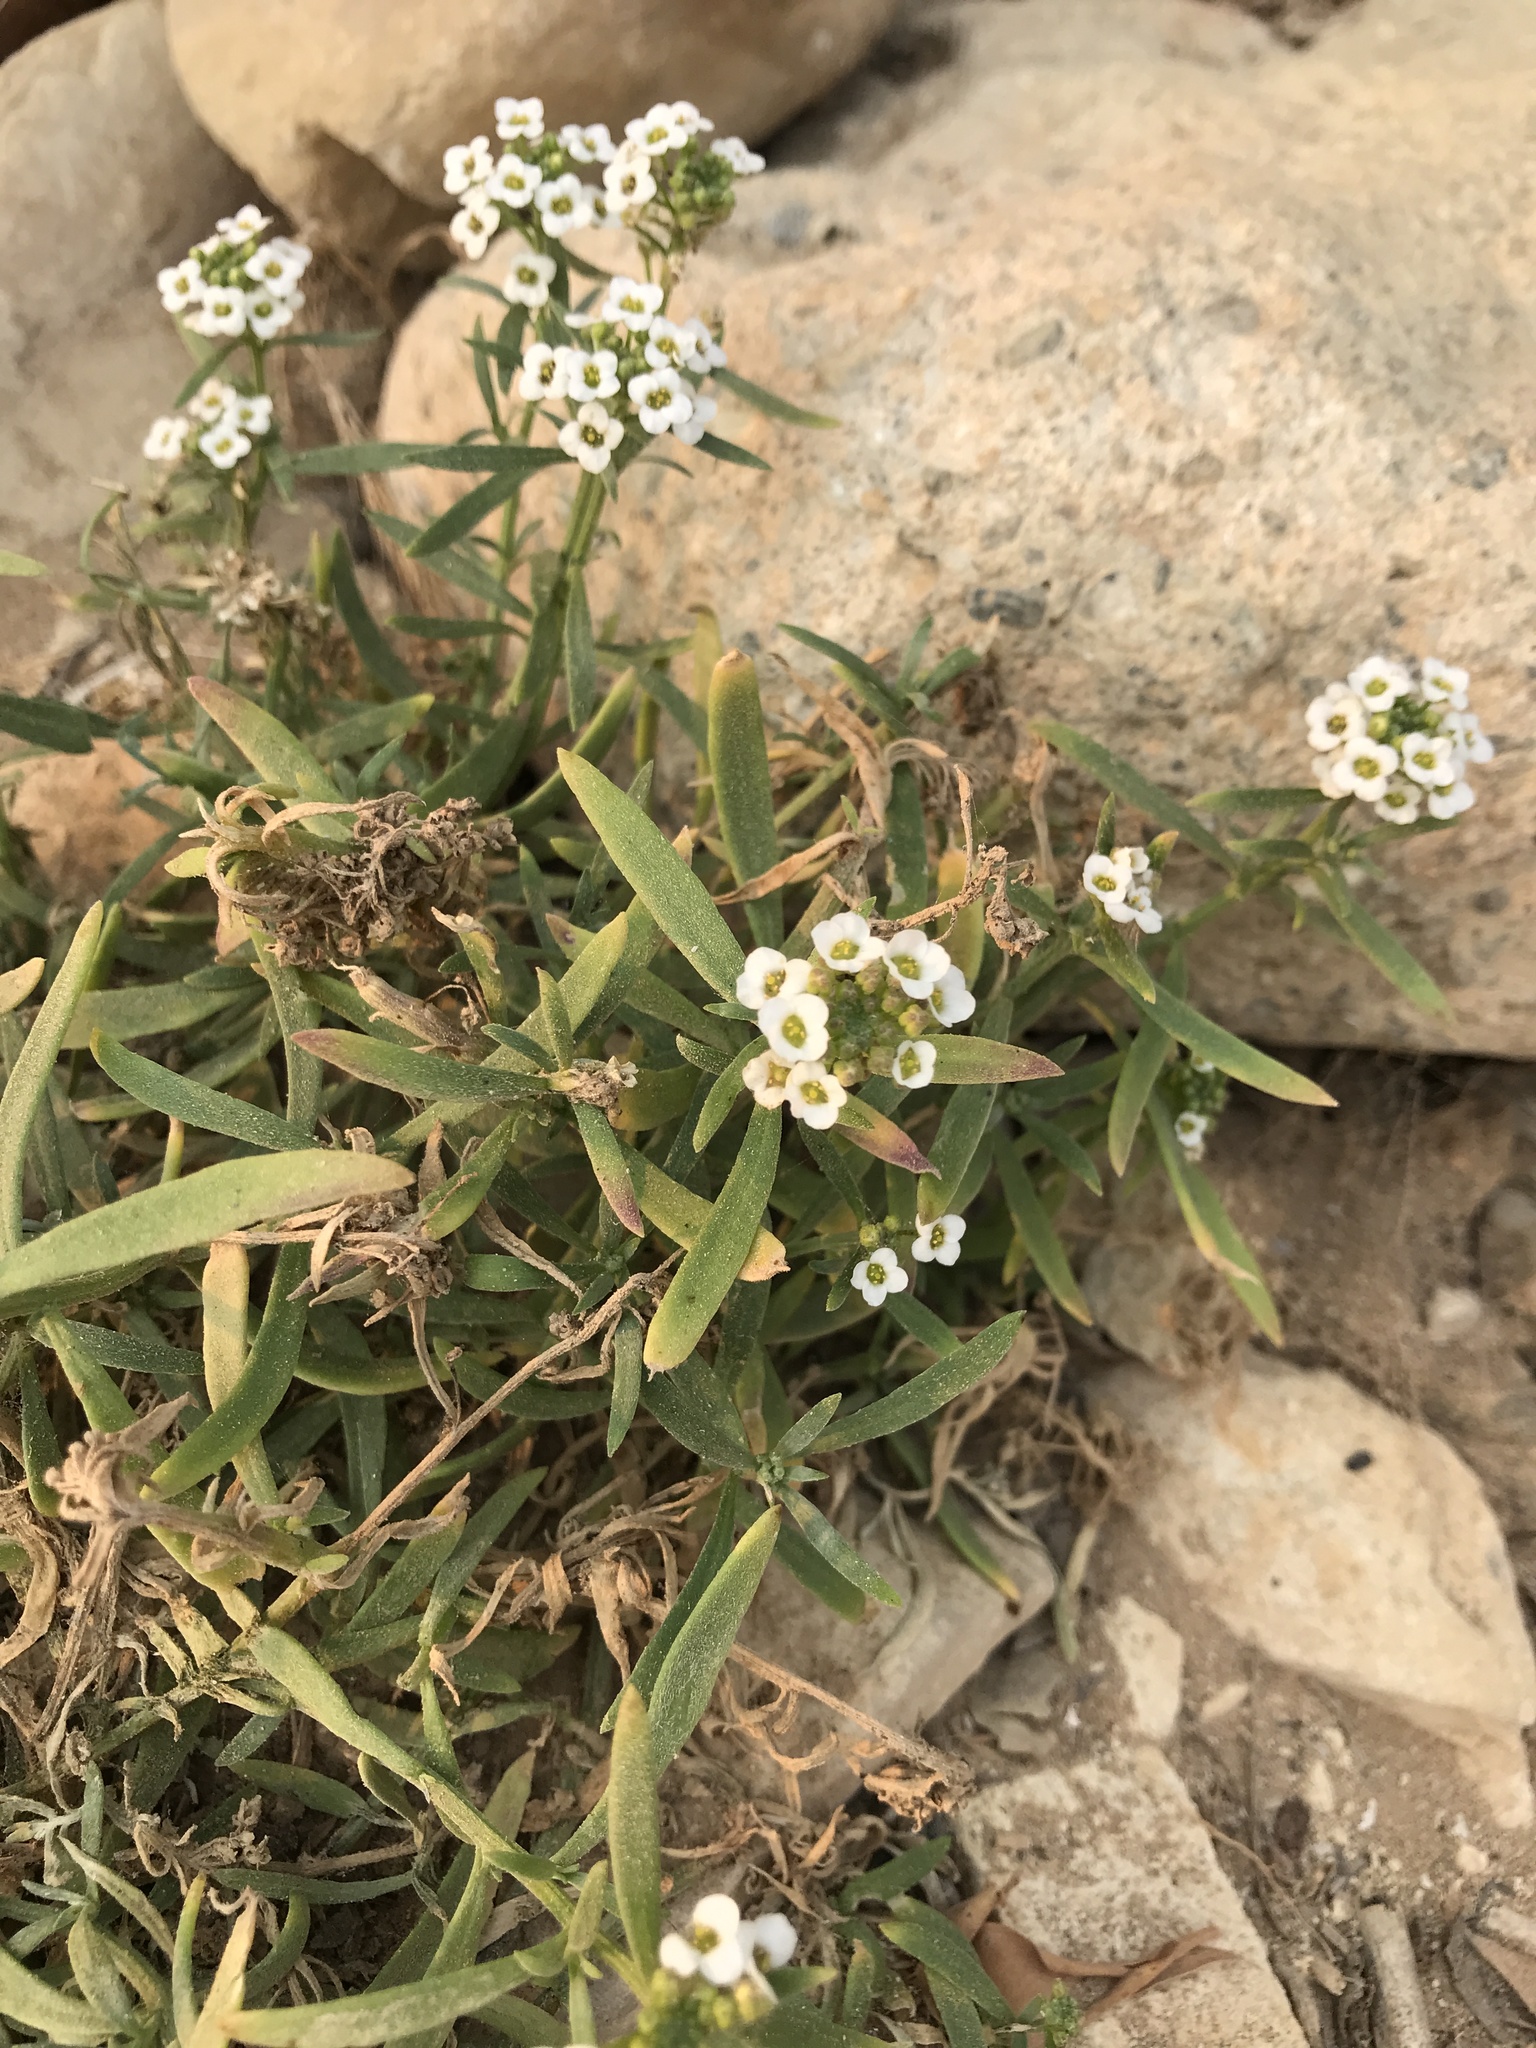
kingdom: Plantae
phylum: Tracheophyta
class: Magnoliopsida
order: Brassicales
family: Brassicaceae
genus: Lobularia
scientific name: Lobularia maritima
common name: Sweet alison
